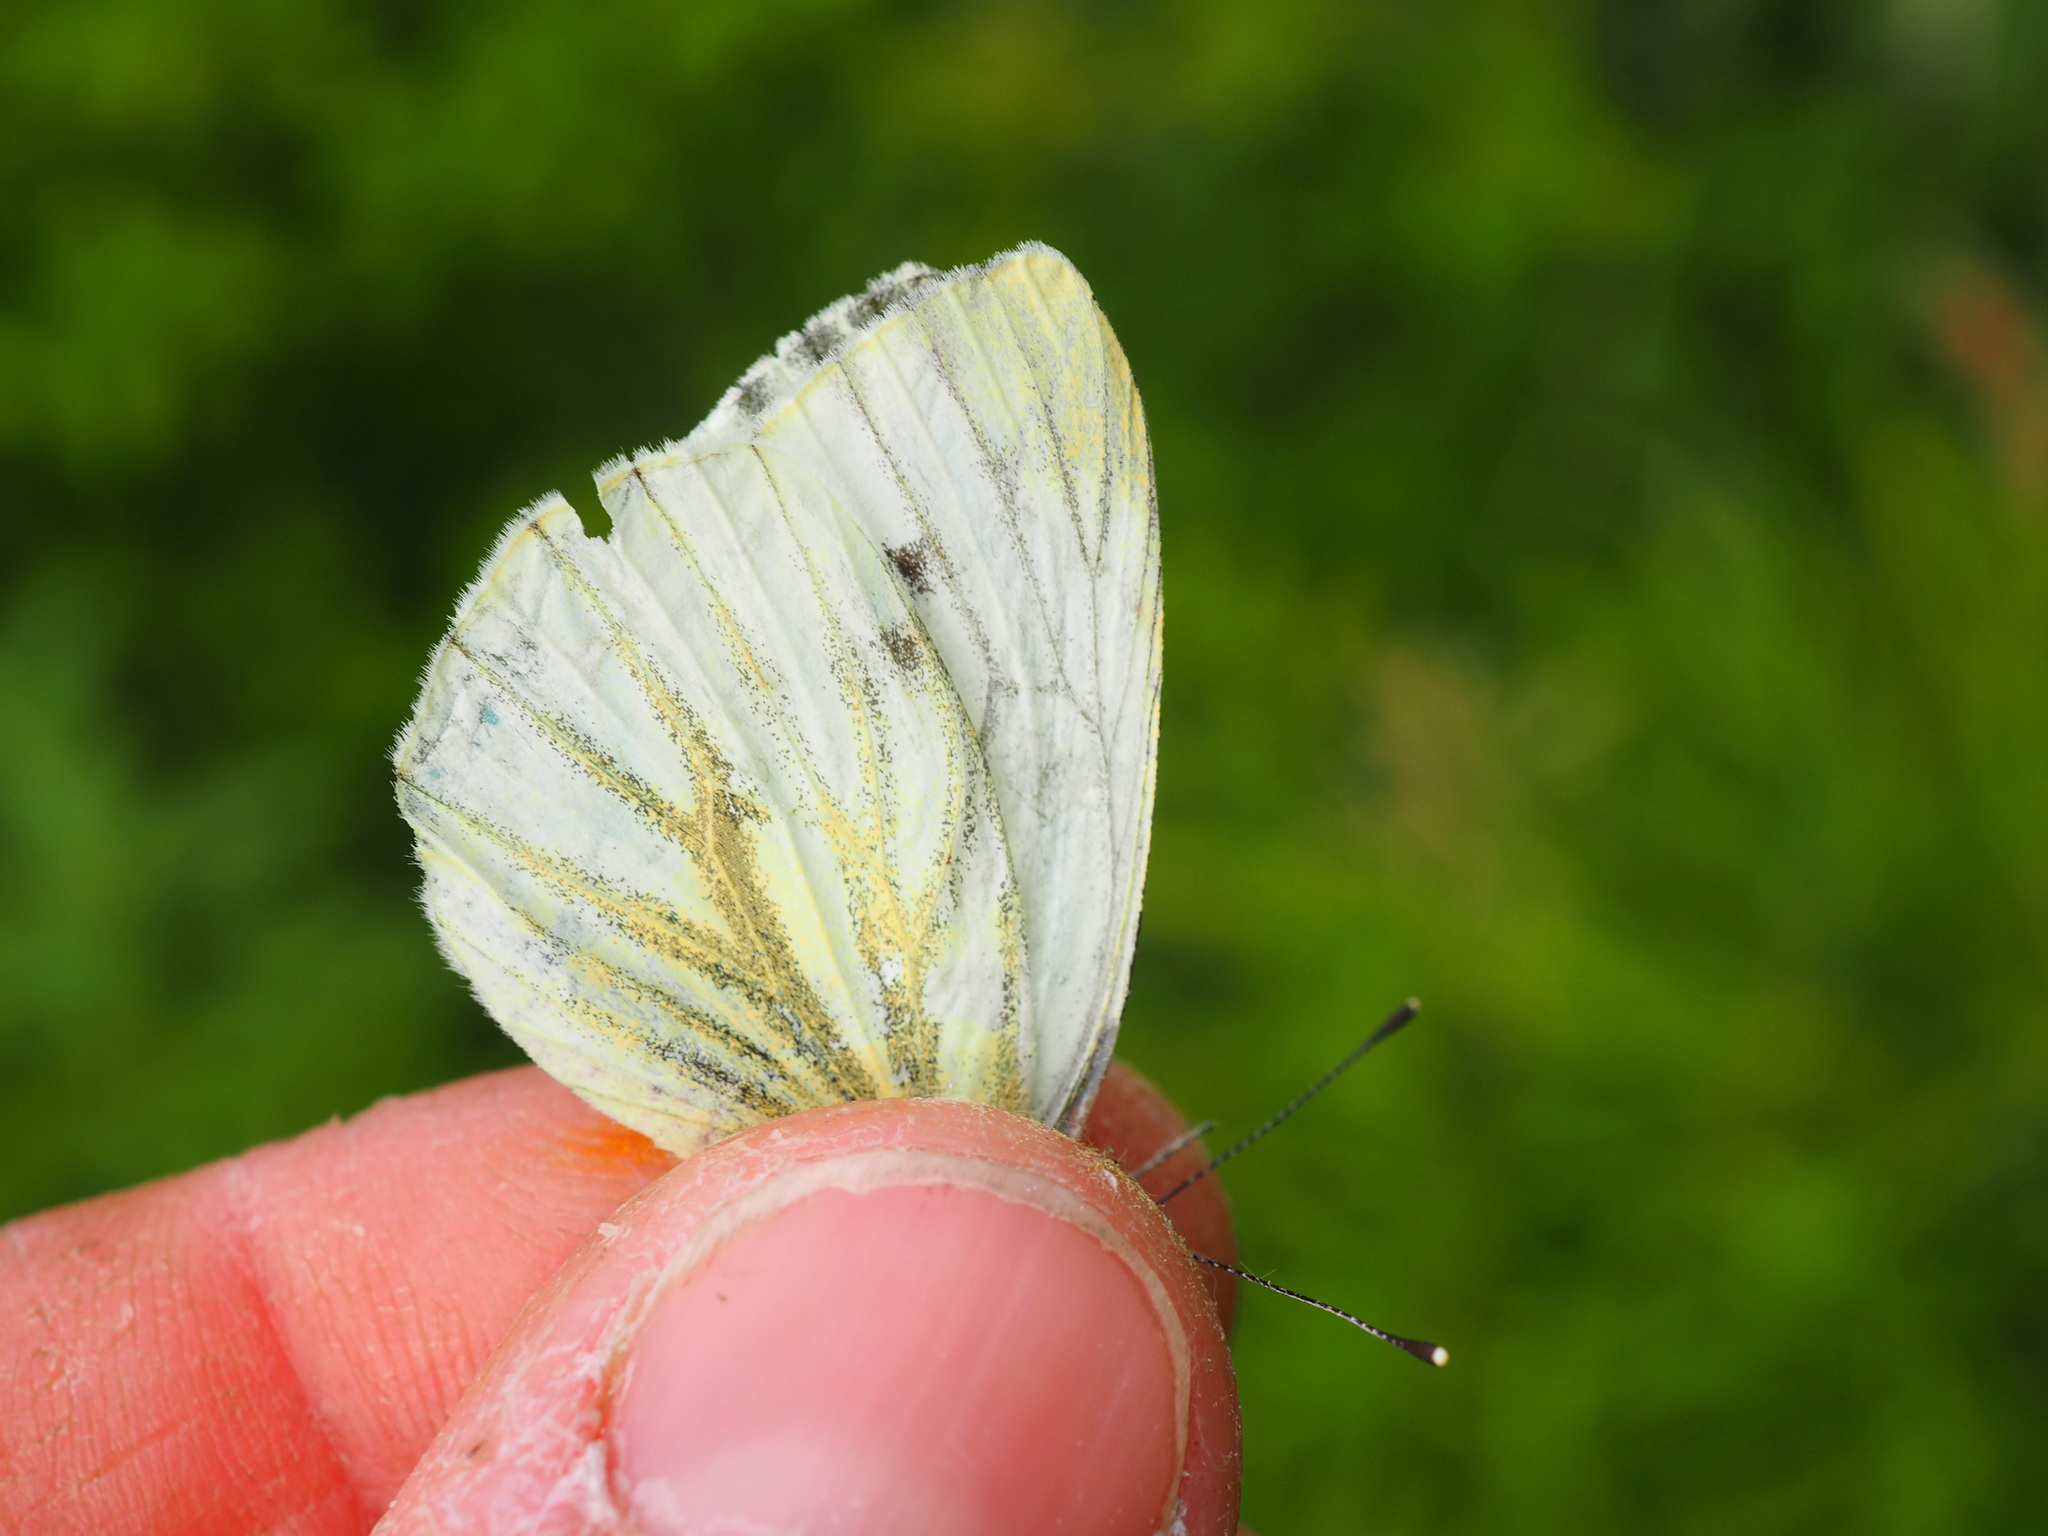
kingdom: Animalia
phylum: Arthropoda
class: Insecta
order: Lepidoptera
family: Pieridae
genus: Pieris
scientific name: Pieris napi
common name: Green-veined white
